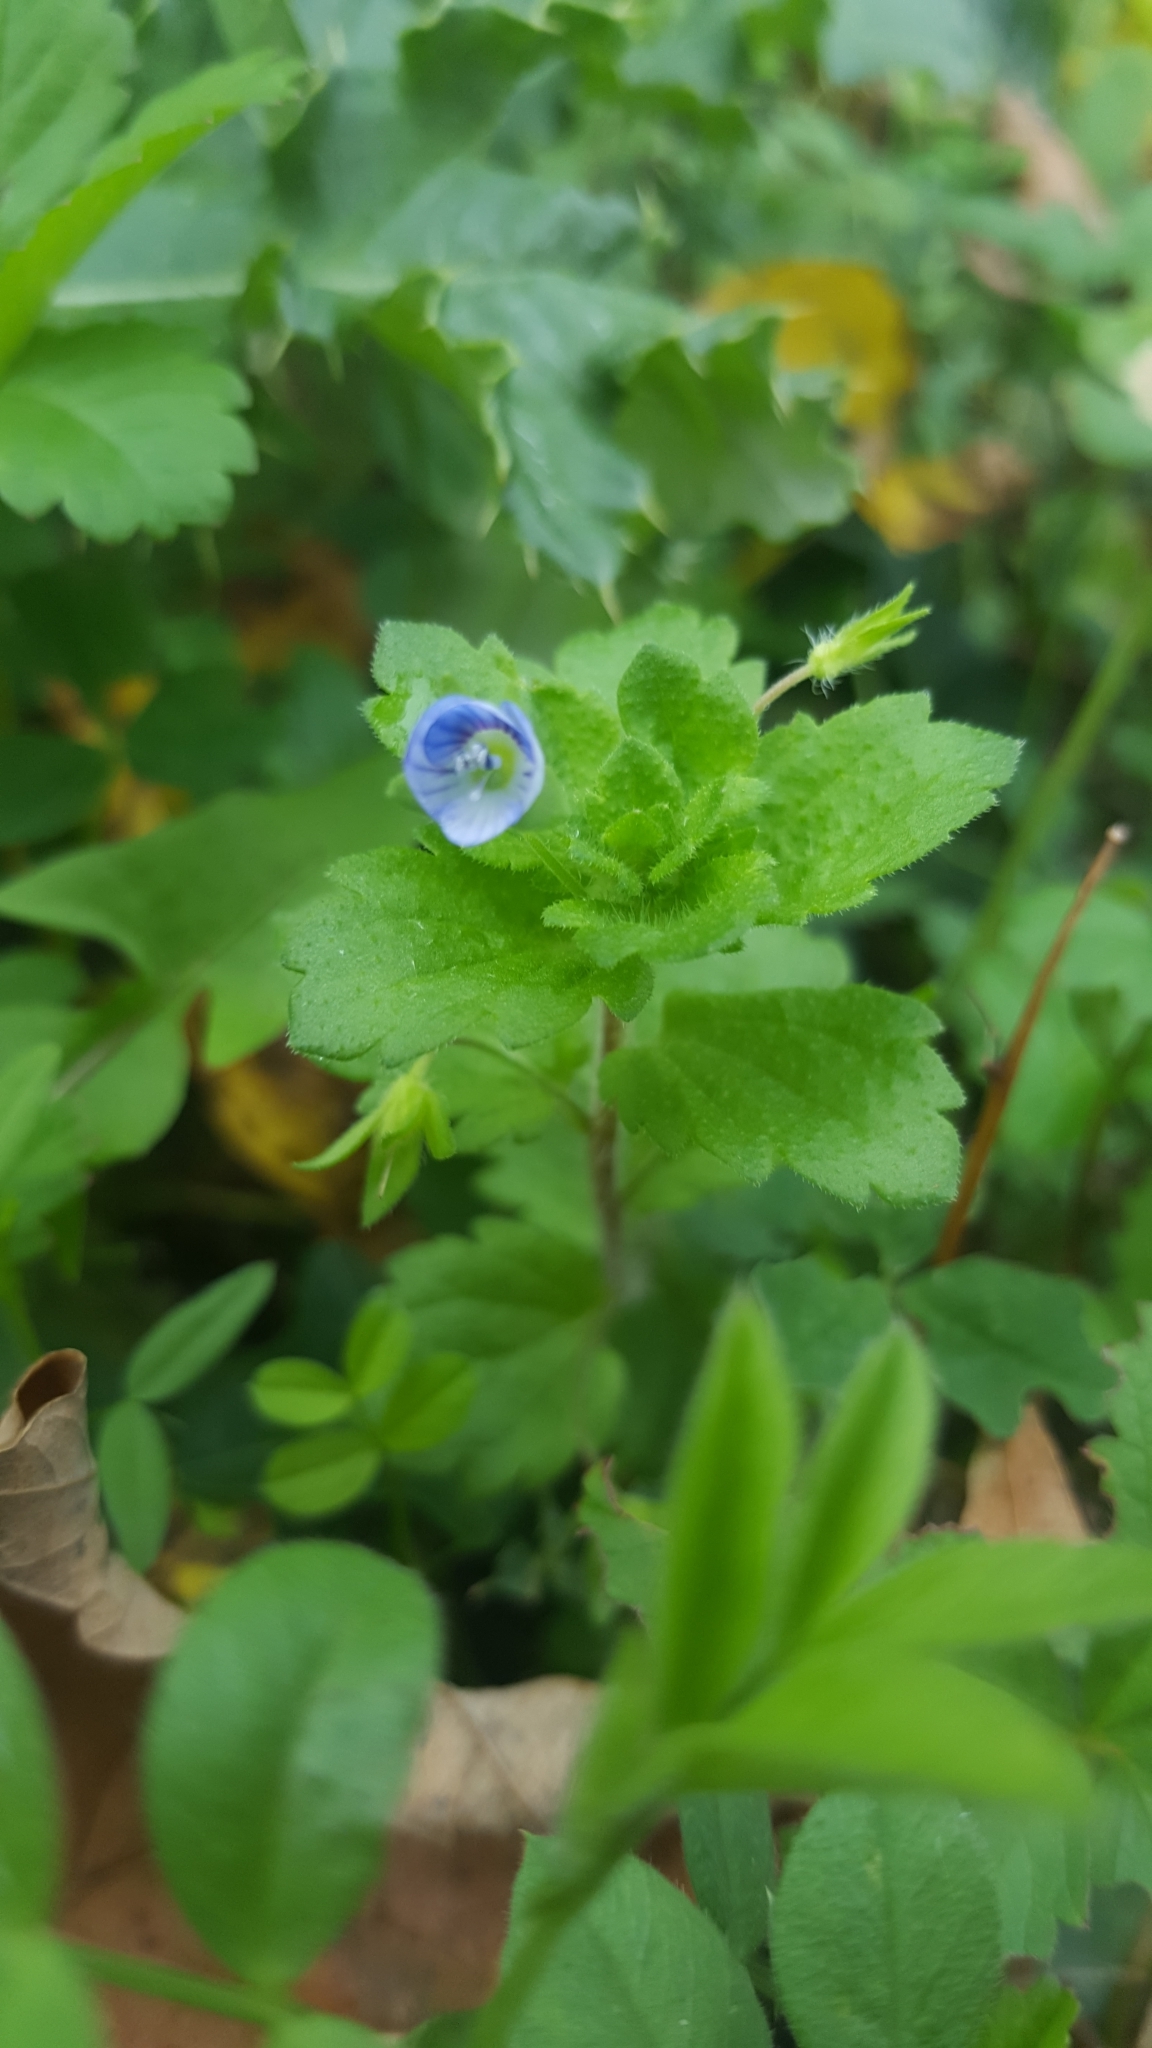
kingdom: Plantae
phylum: Tracheophyta
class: Magnoliopsida
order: Lamiales
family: Plantaginaceae
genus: Veronica
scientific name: Veronica persica
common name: Common field-speedwell
